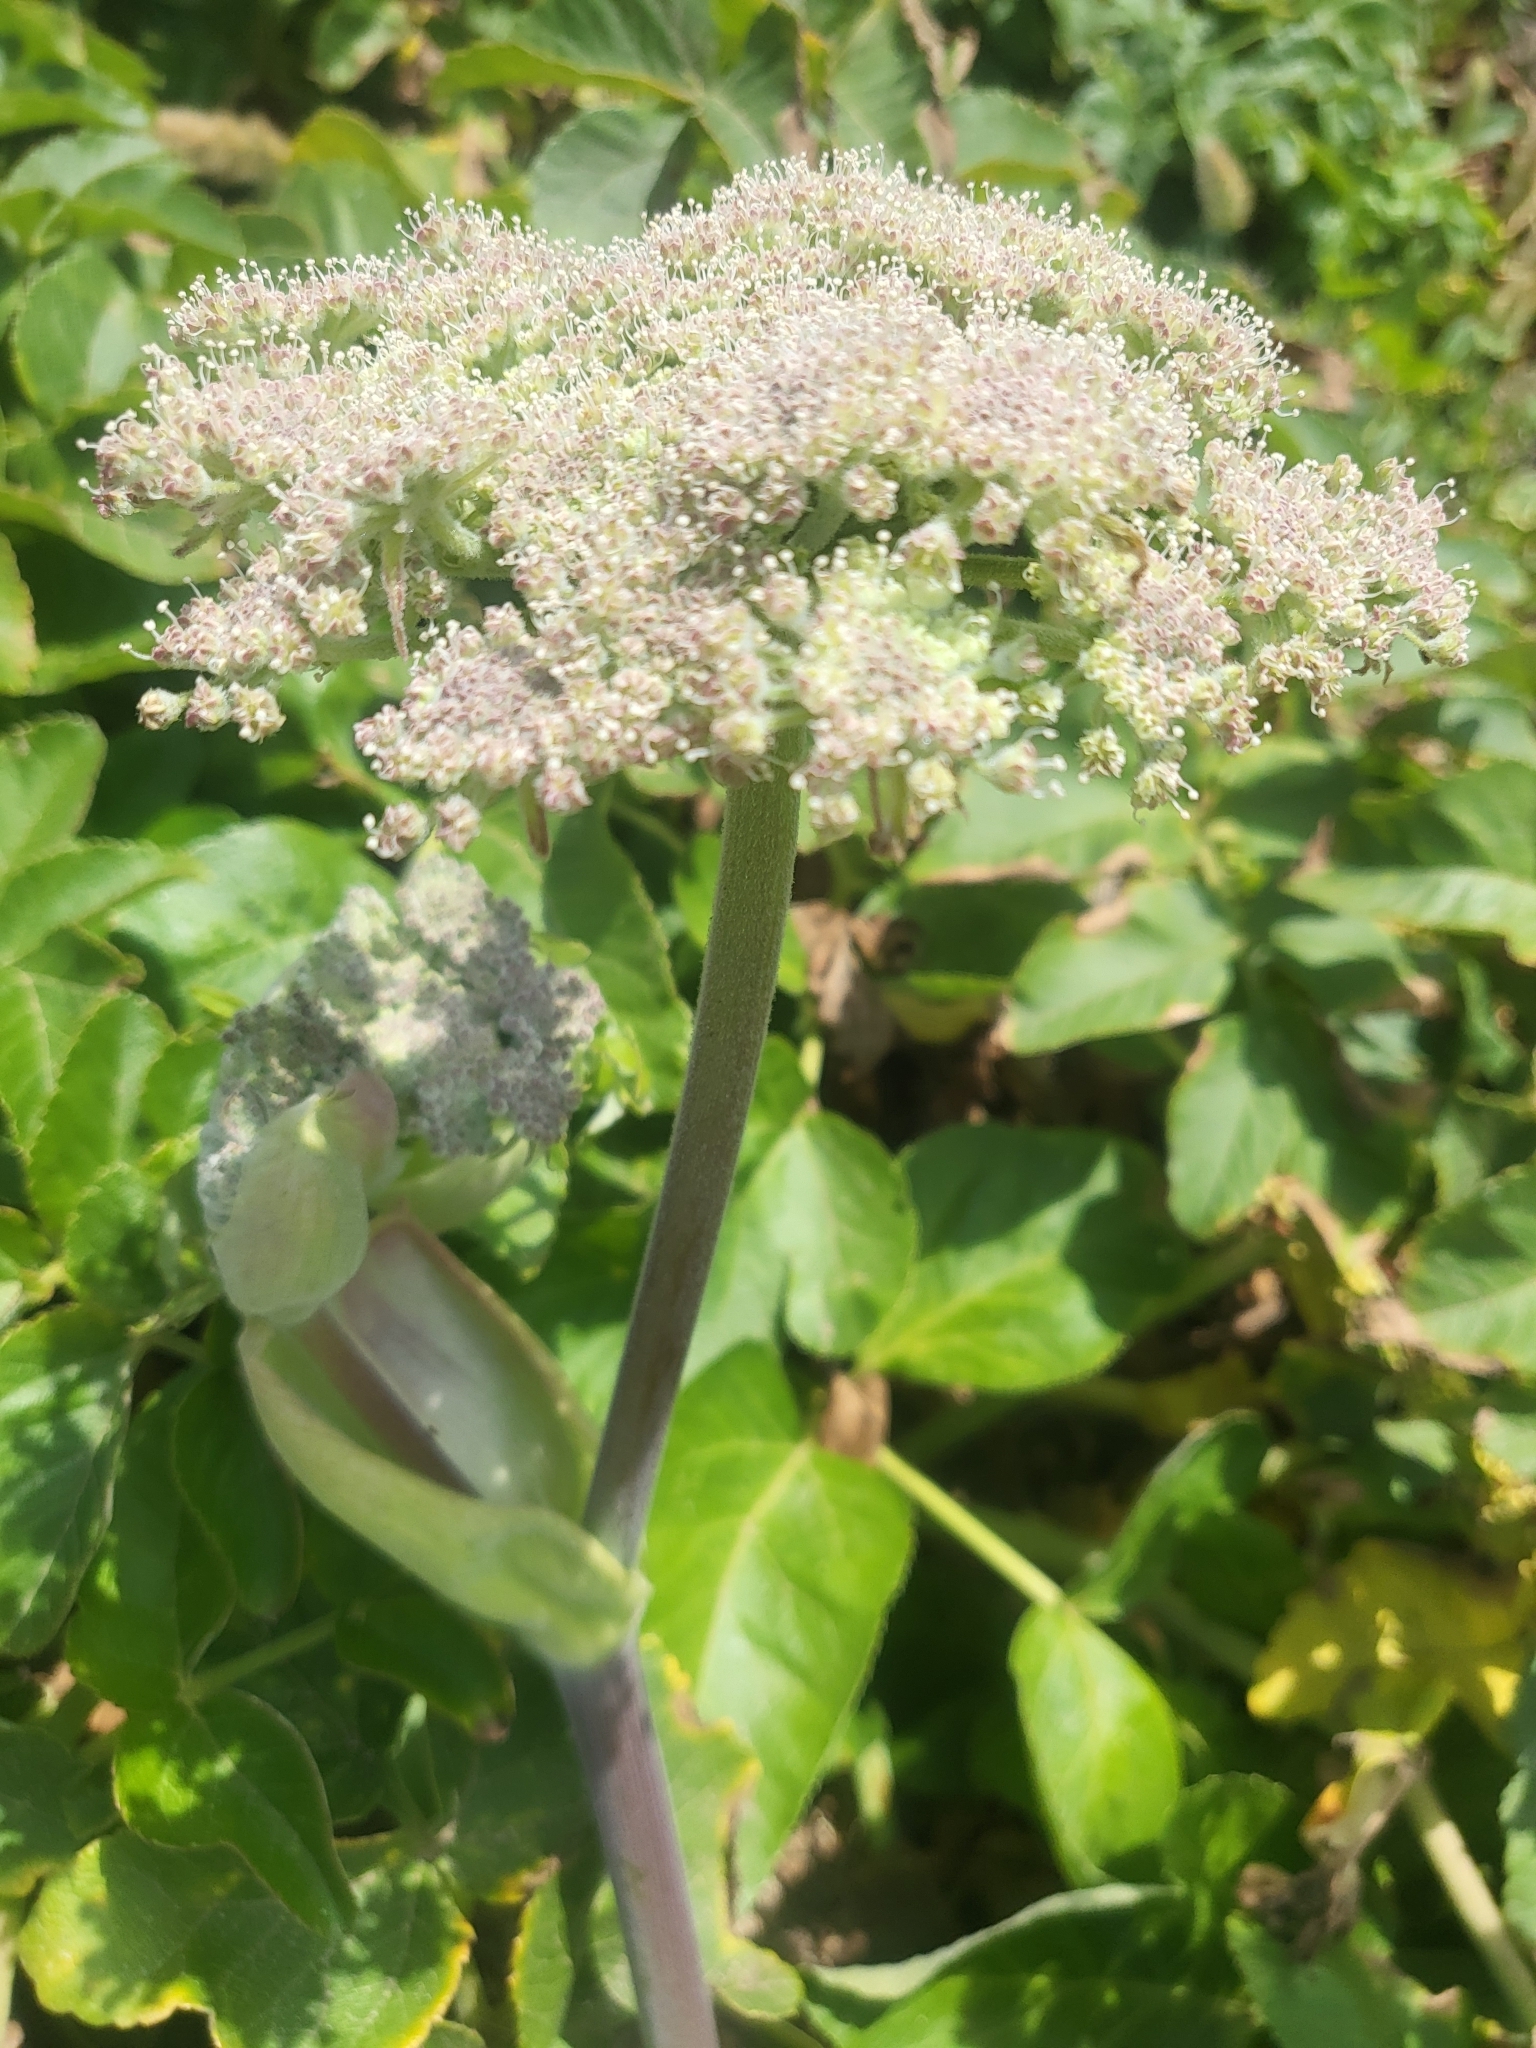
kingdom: Plantae
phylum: Tracheophyta
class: Magnoliopsida
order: Apiales
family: Apiaceae
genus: Angelica
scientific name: Angelica hendersonii
